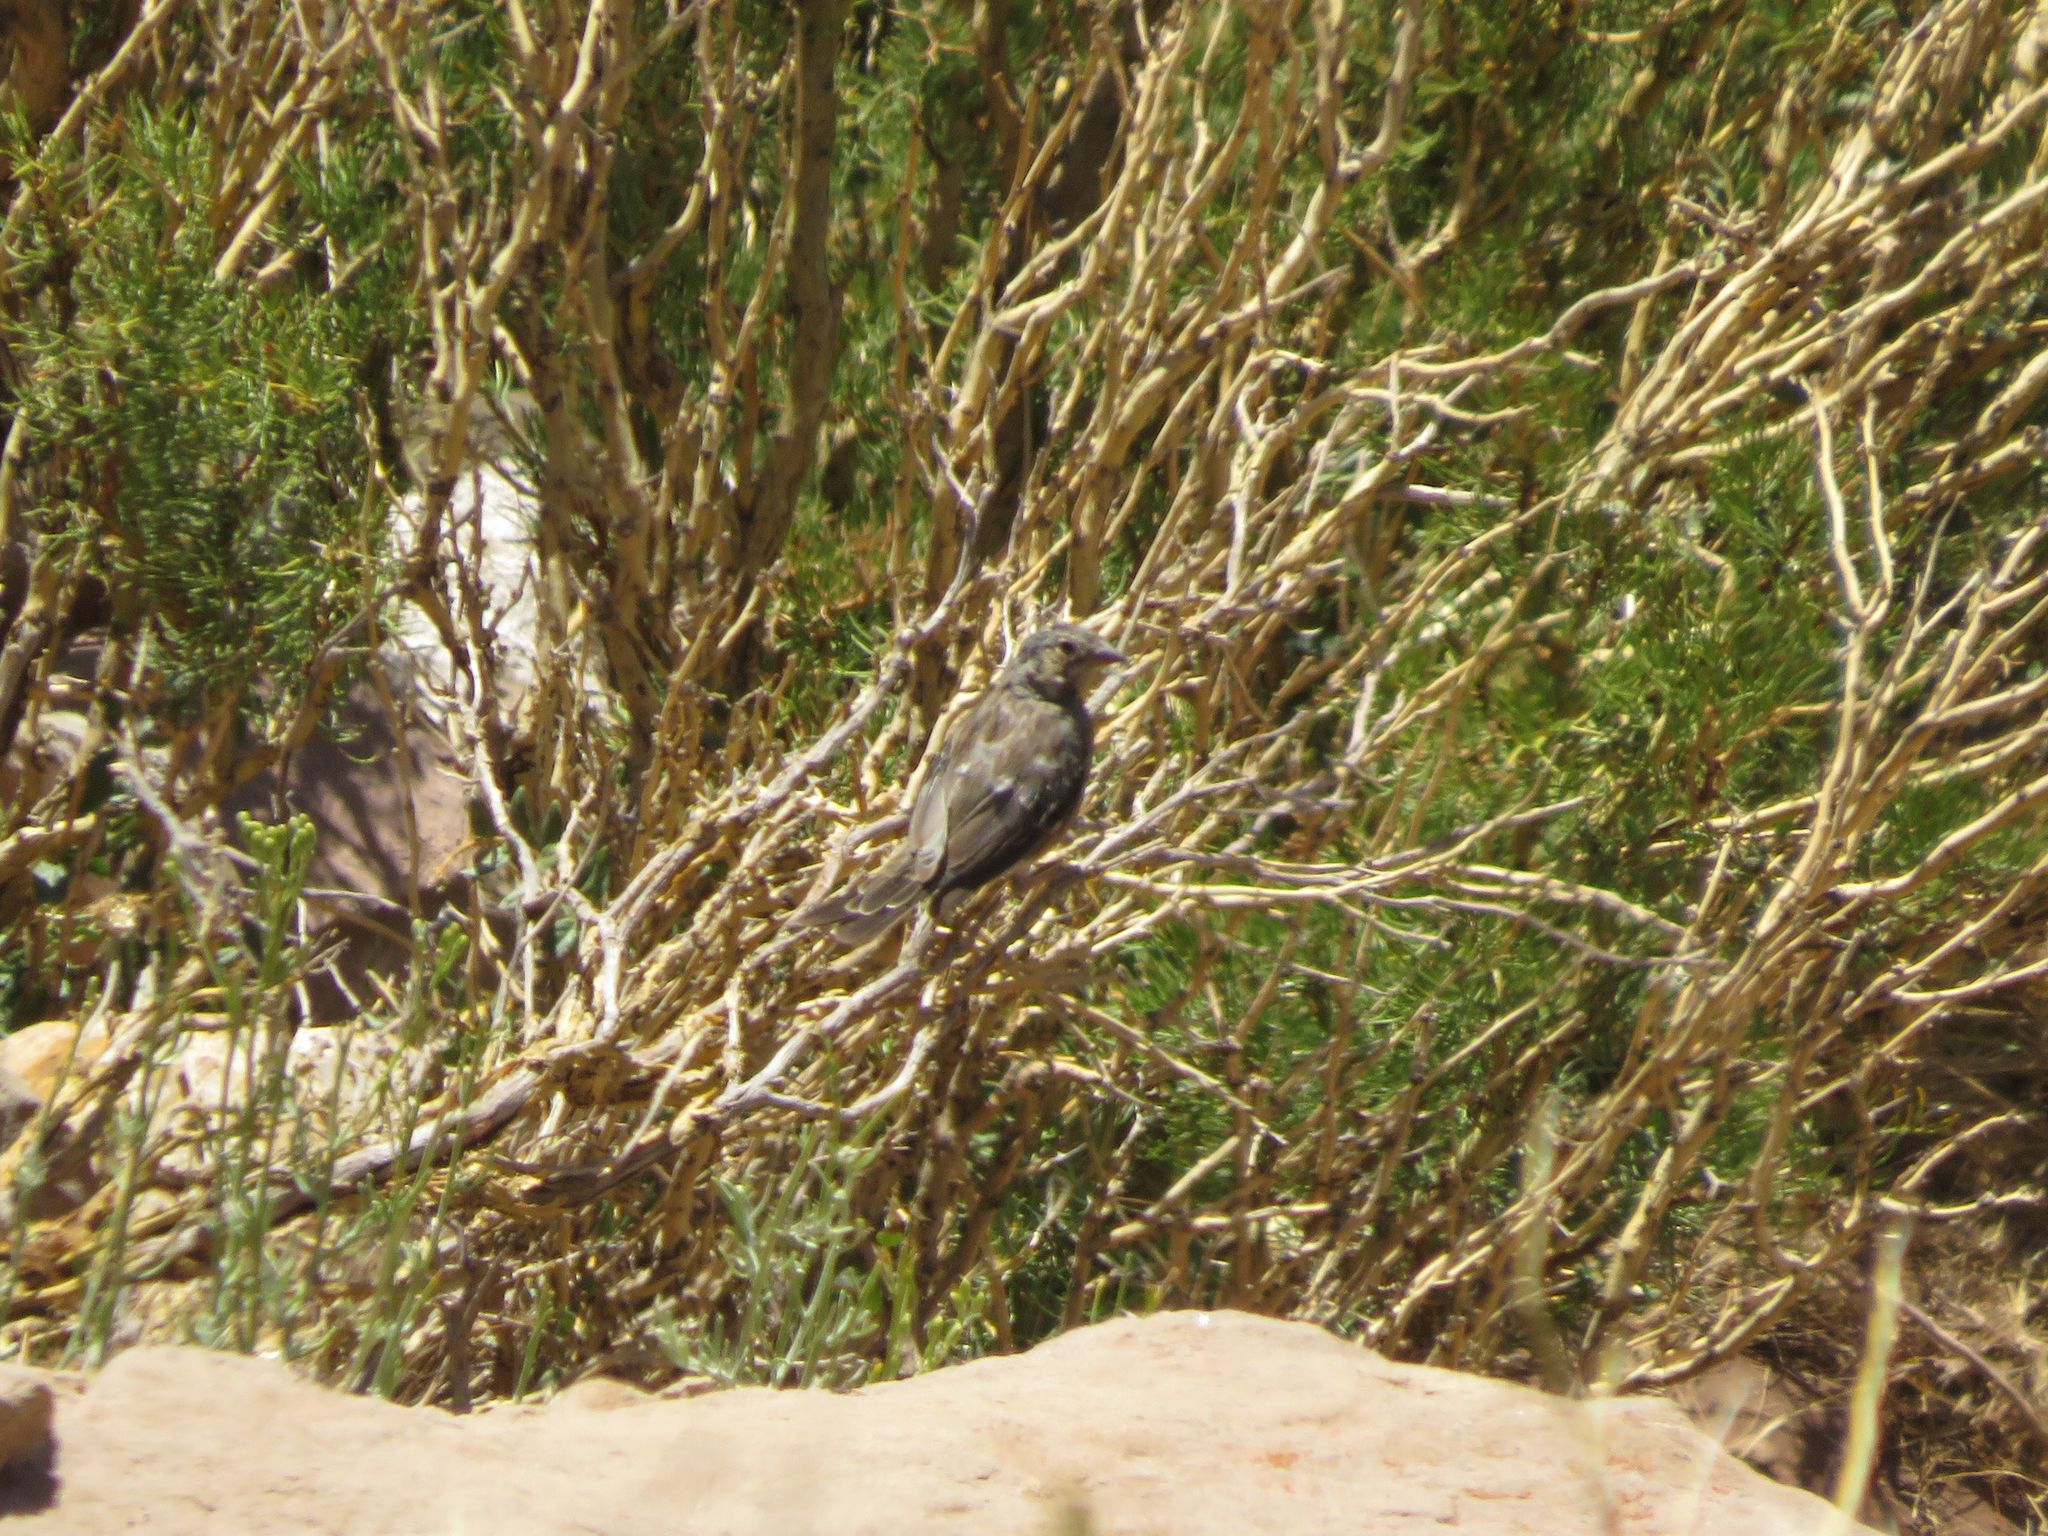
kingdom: Animalia
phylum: Chordata
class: Aves
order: Passeriformes
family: Thraupidae
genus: Rhopospina
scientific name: Rhopospina fruticeti
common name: Mourning sierra finch
